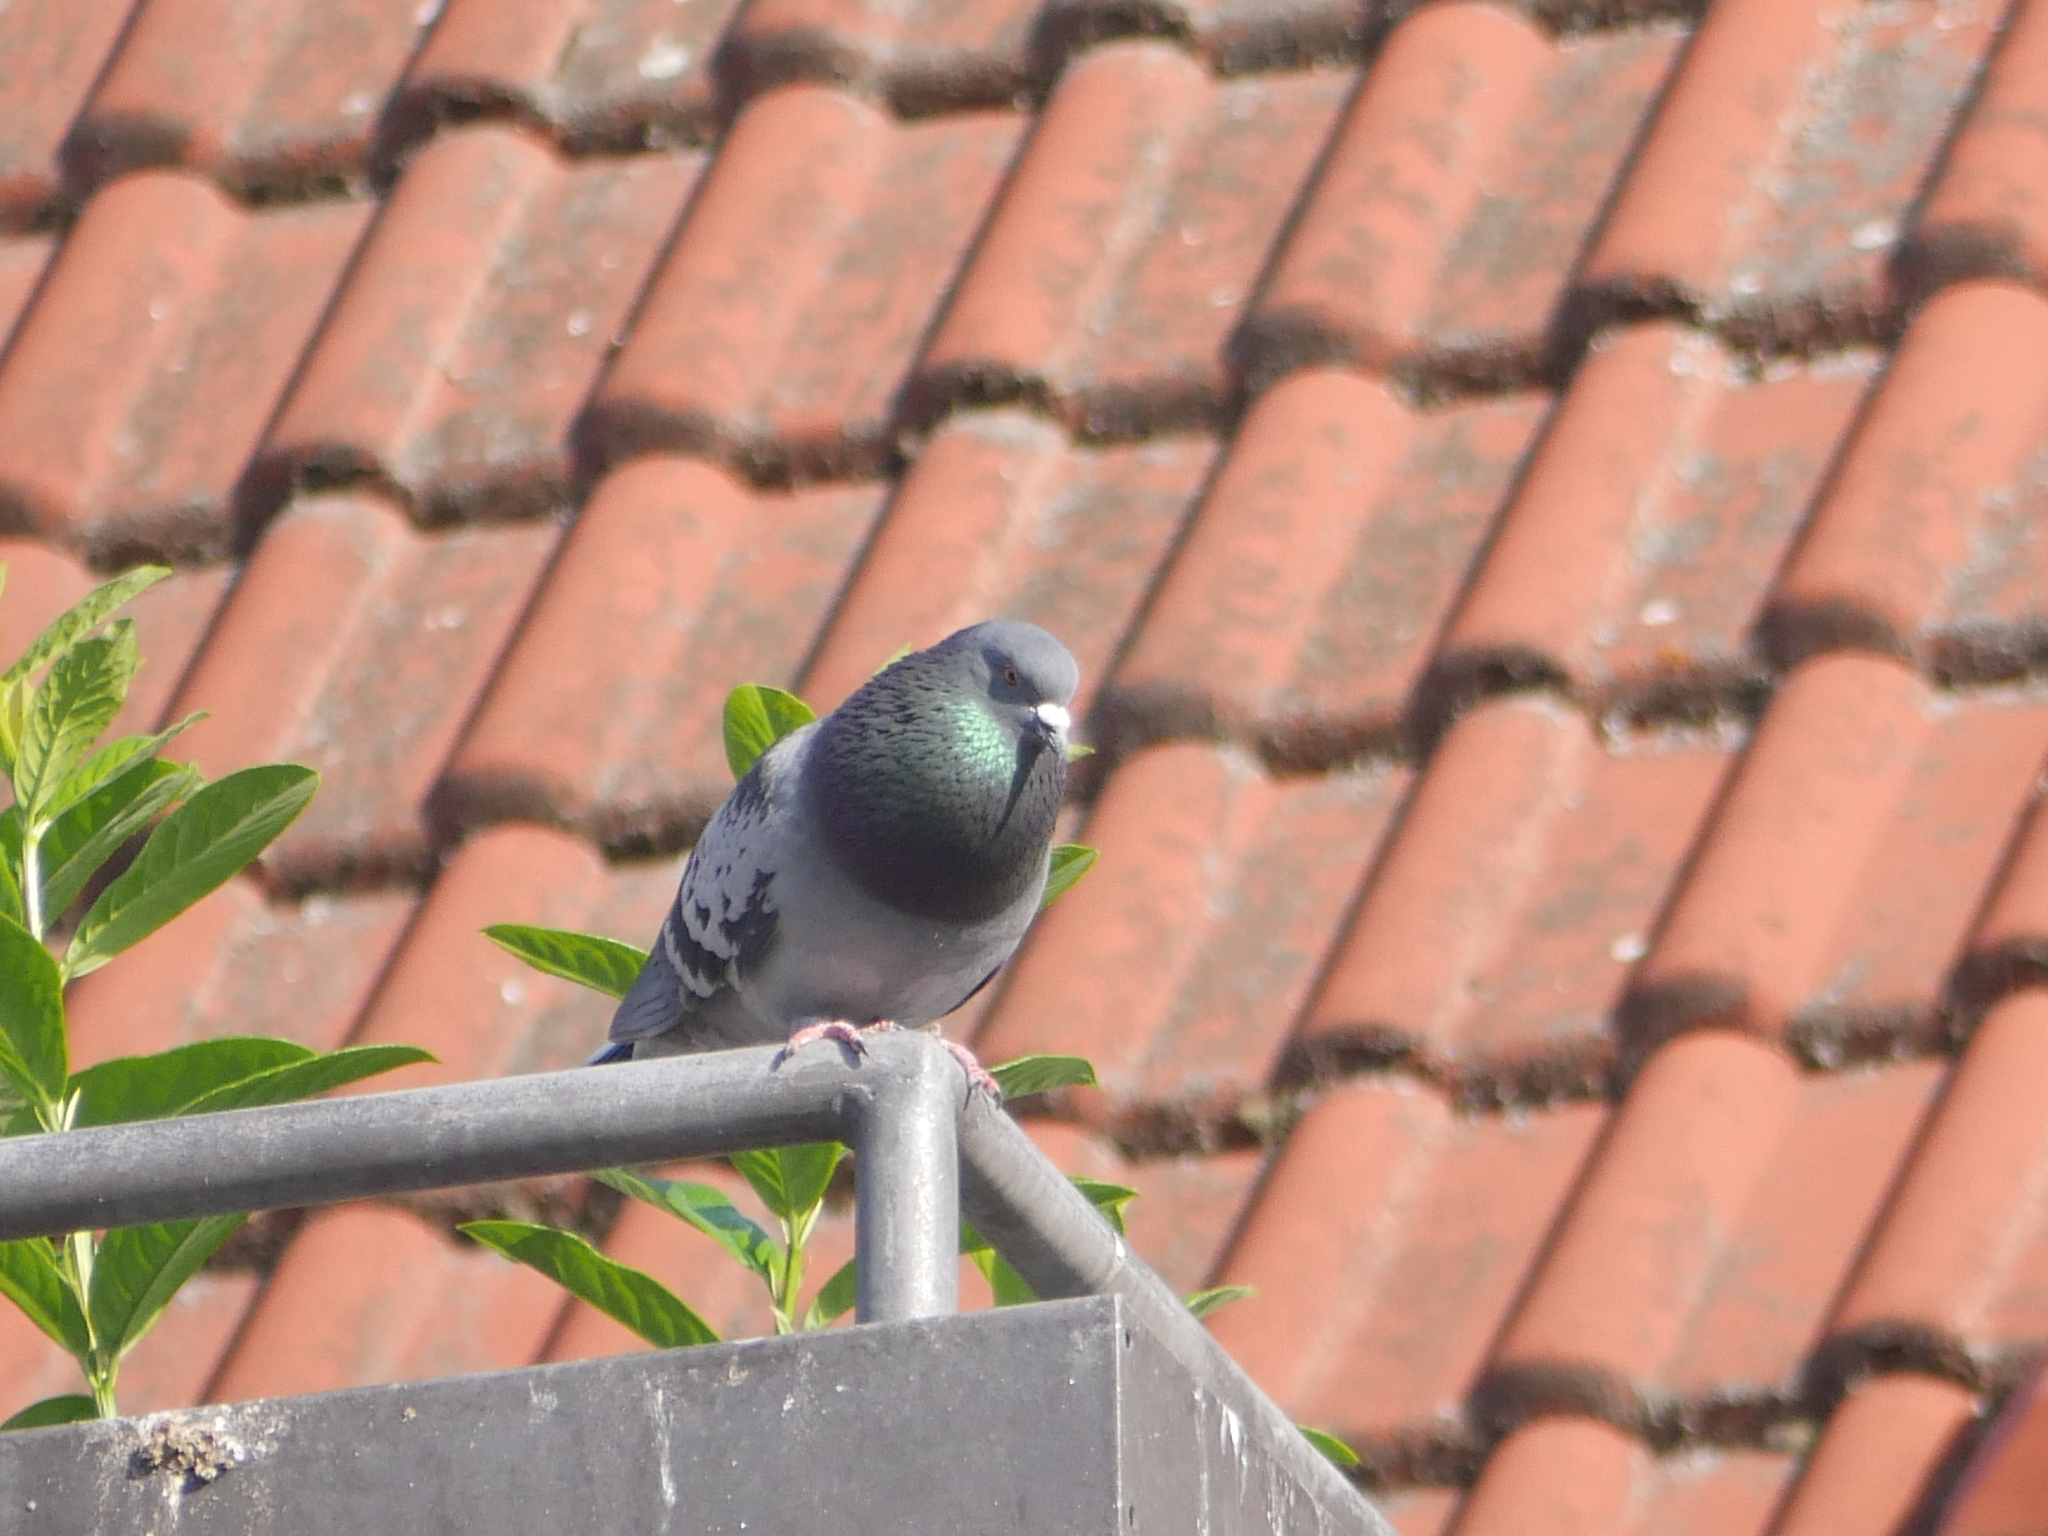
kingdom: Animalia
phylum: Chordata
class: Aves
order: Columbiformes
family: Columbidae
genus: Columba
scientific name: Columba livia
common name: Rock pigeon
